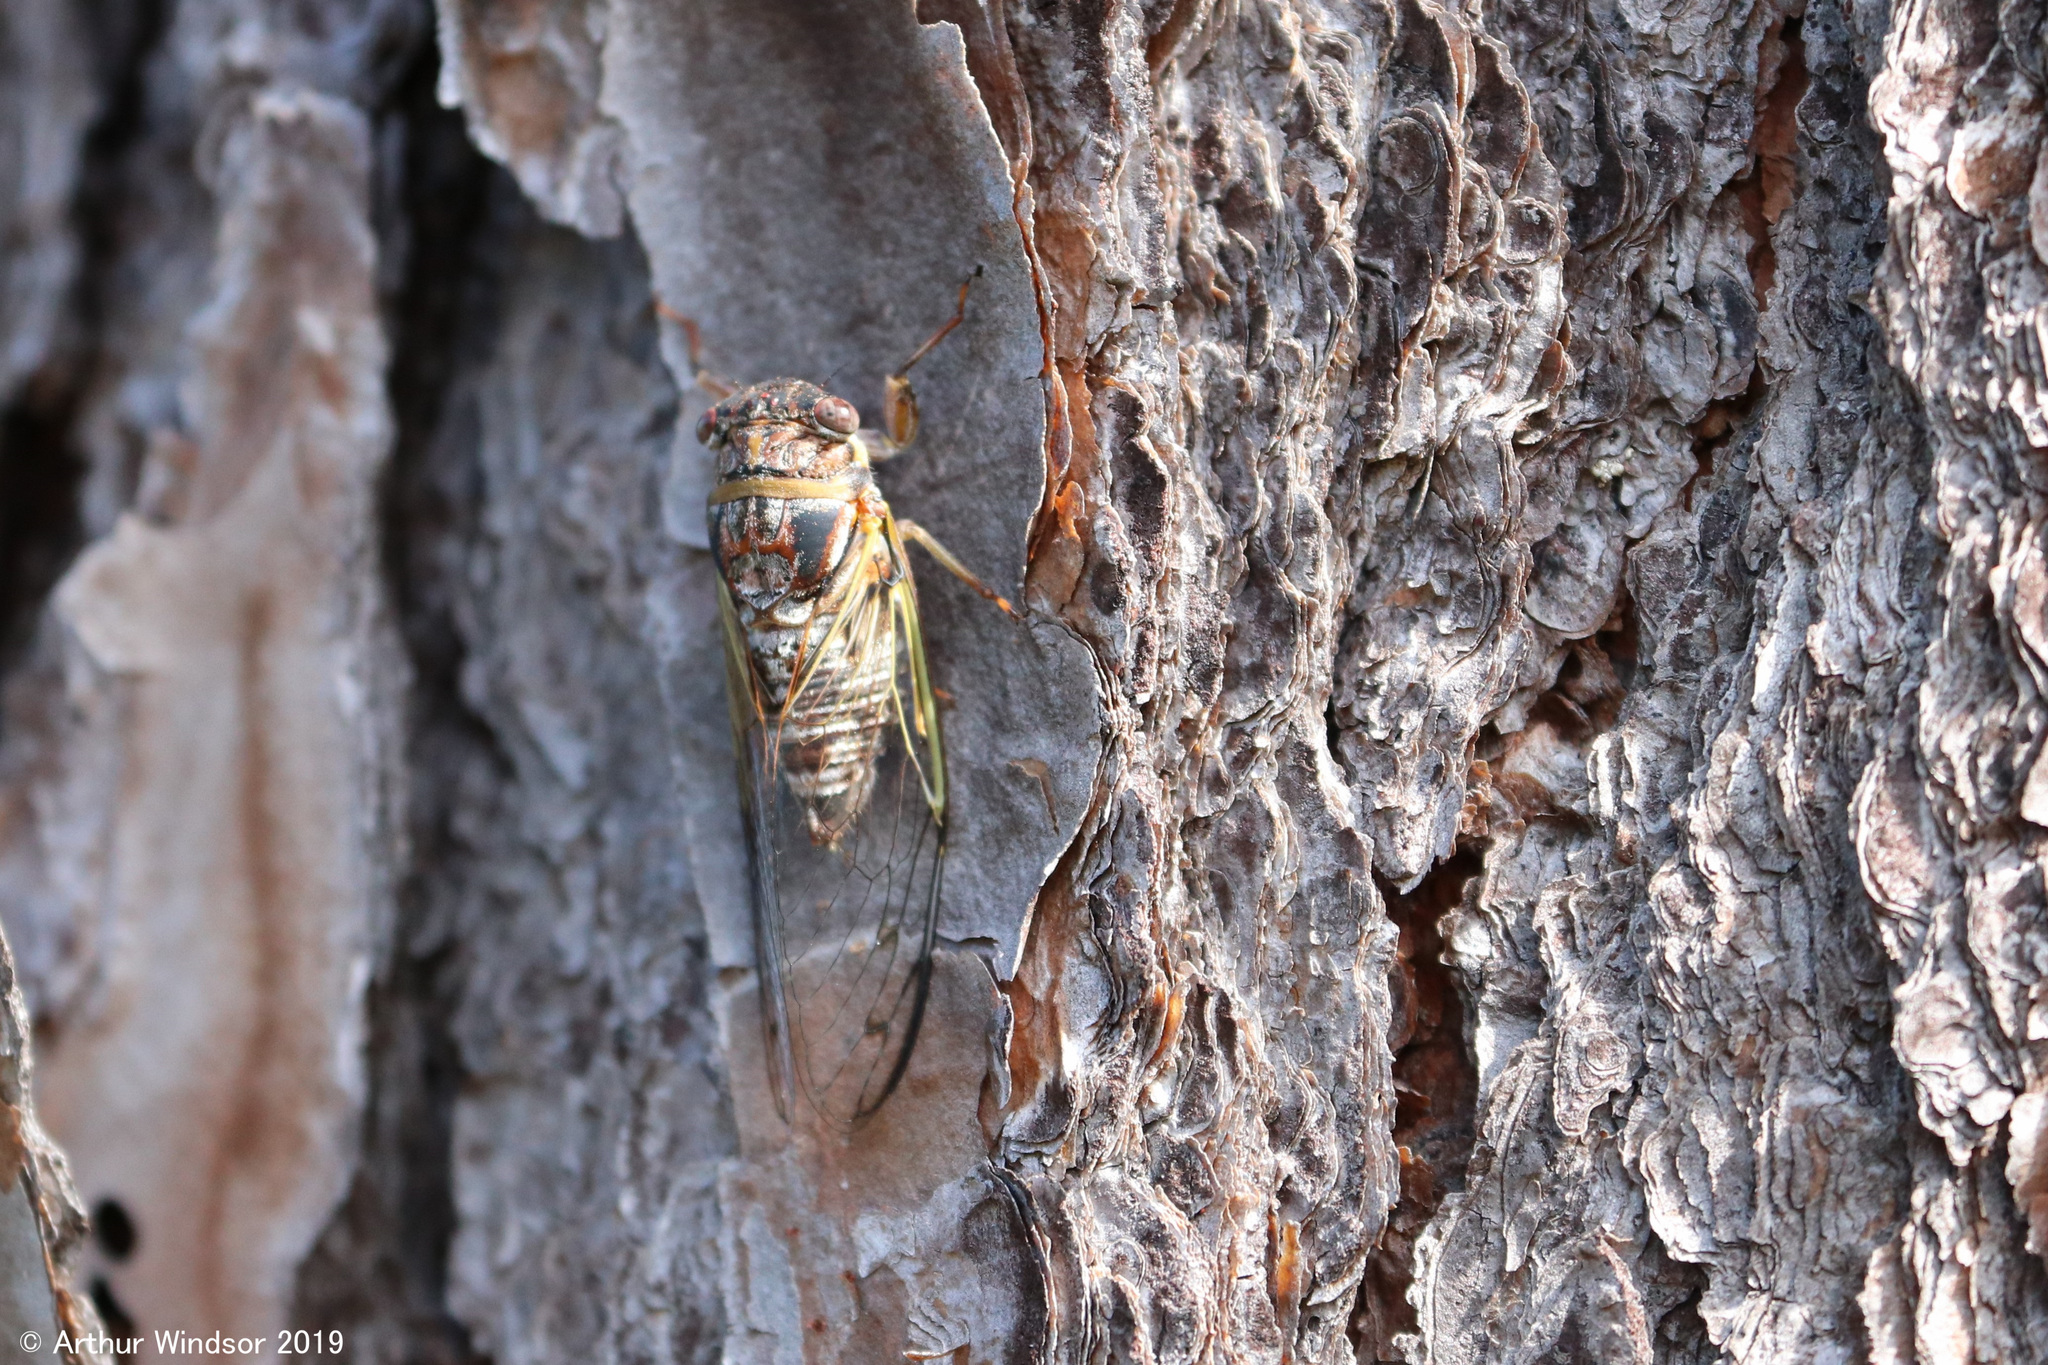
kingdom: Animalia
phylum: Arthropoda
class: Insecta
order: Hemiptera
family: Cicadidae
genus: Diceroprocta
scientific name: Diceroprocta olympusa
